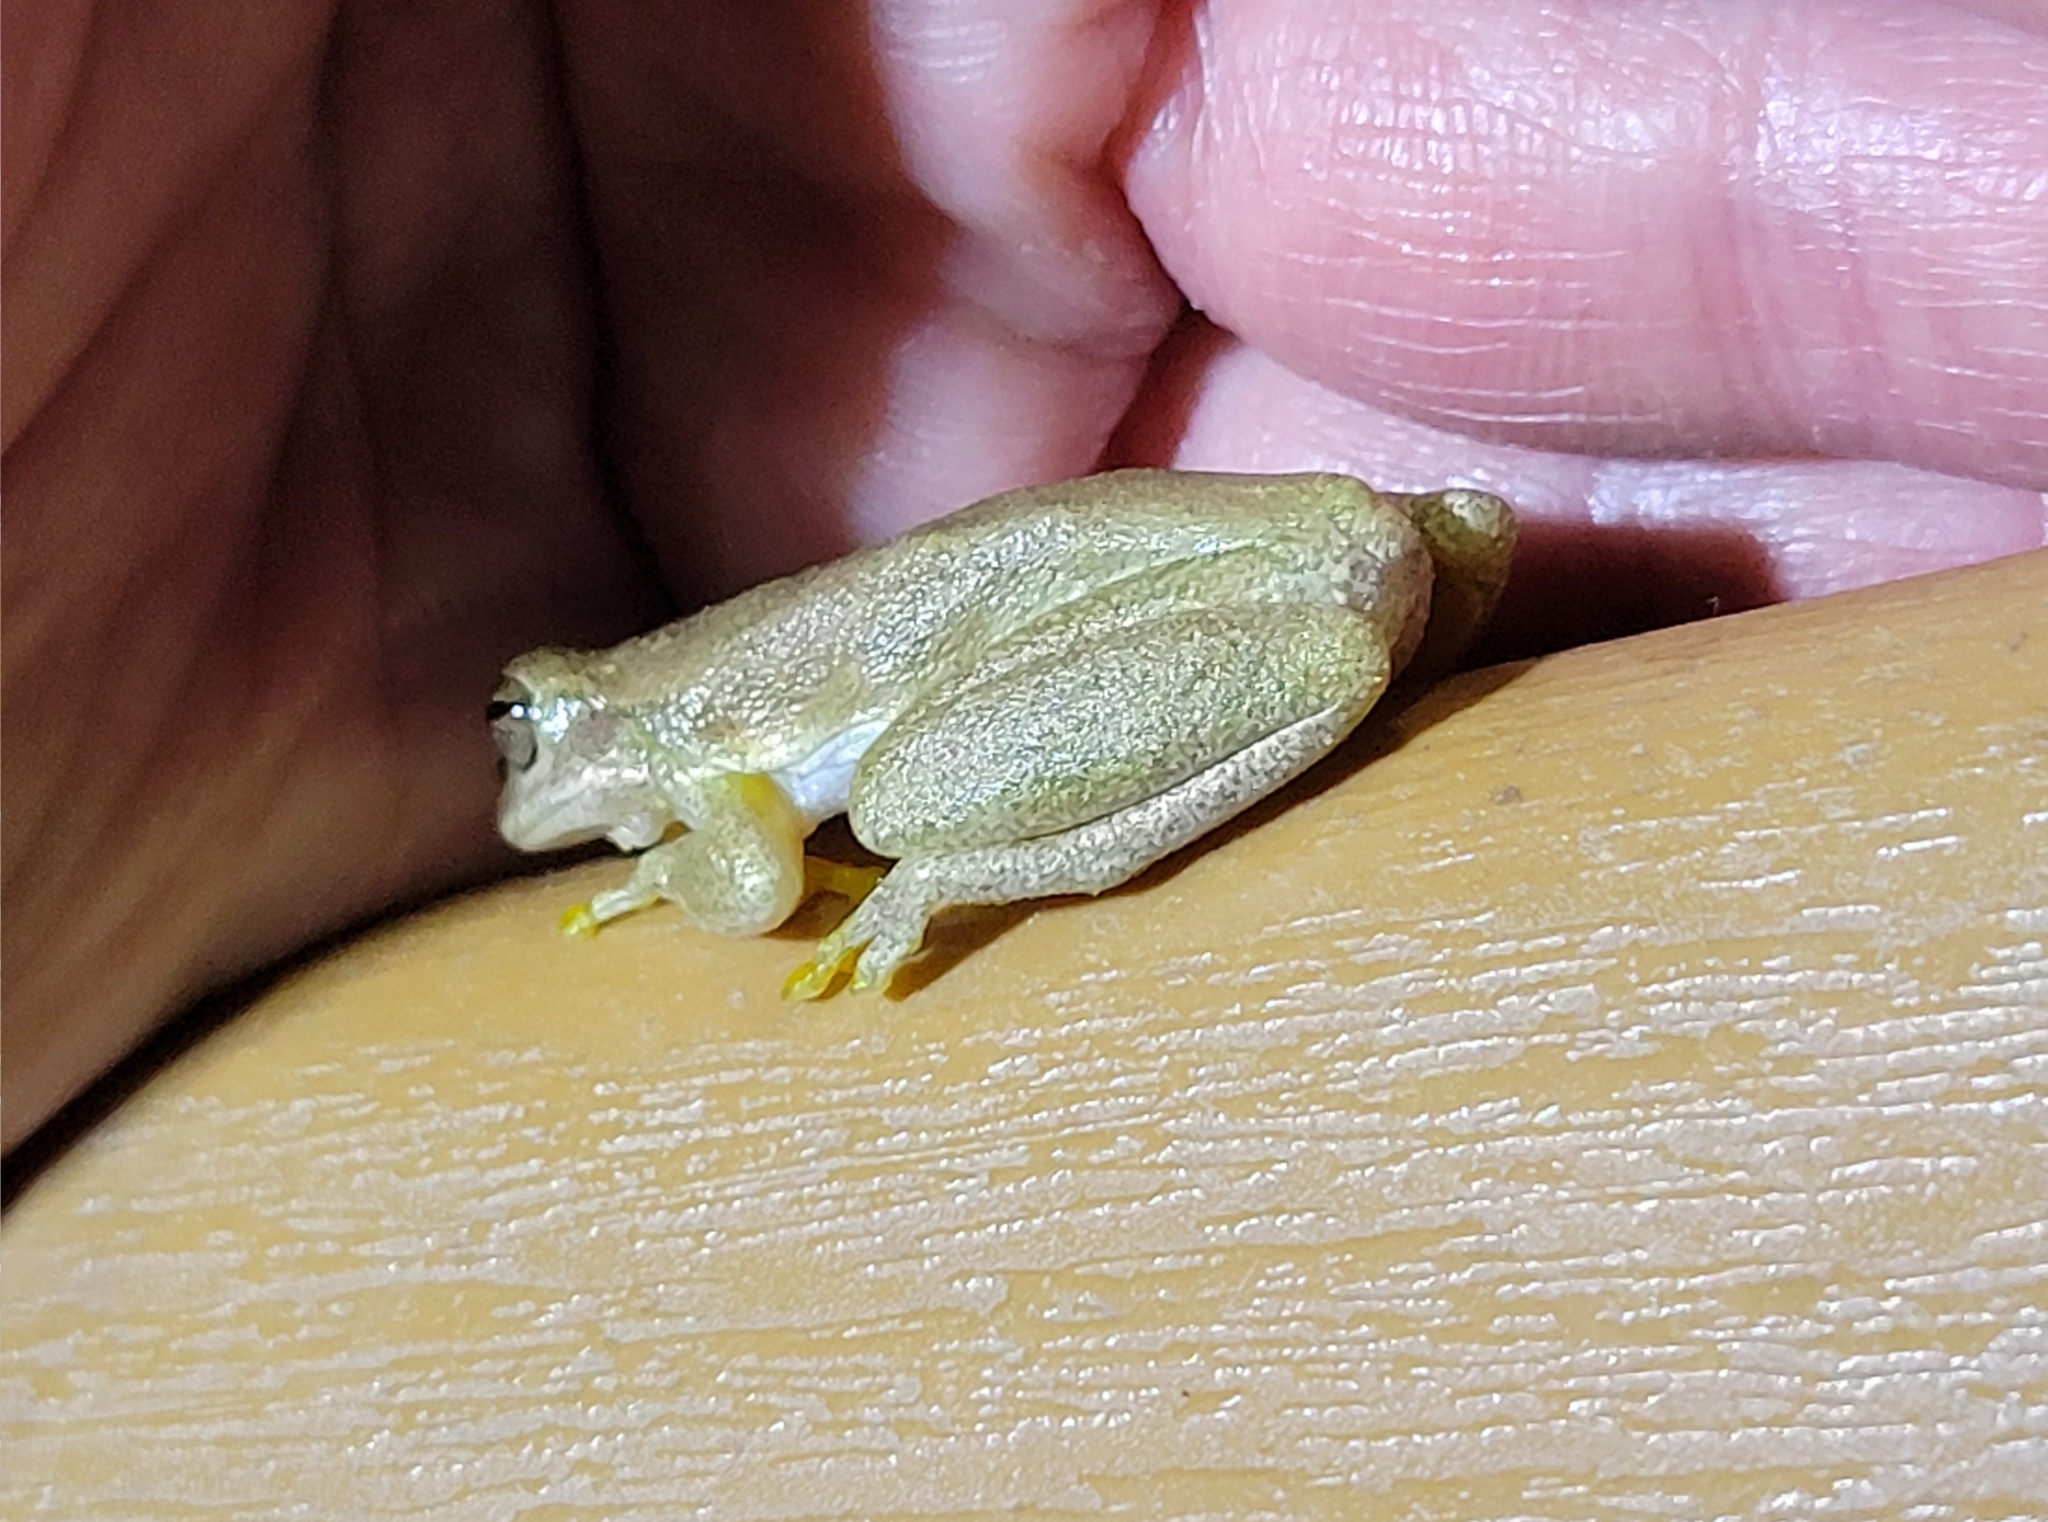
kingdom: Animalia
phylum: Chordata
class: Amphibia
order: Anura
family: Hylidae
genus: Dryophytes
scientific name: Dryophytes squirellus
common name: Squirrel treefrog
